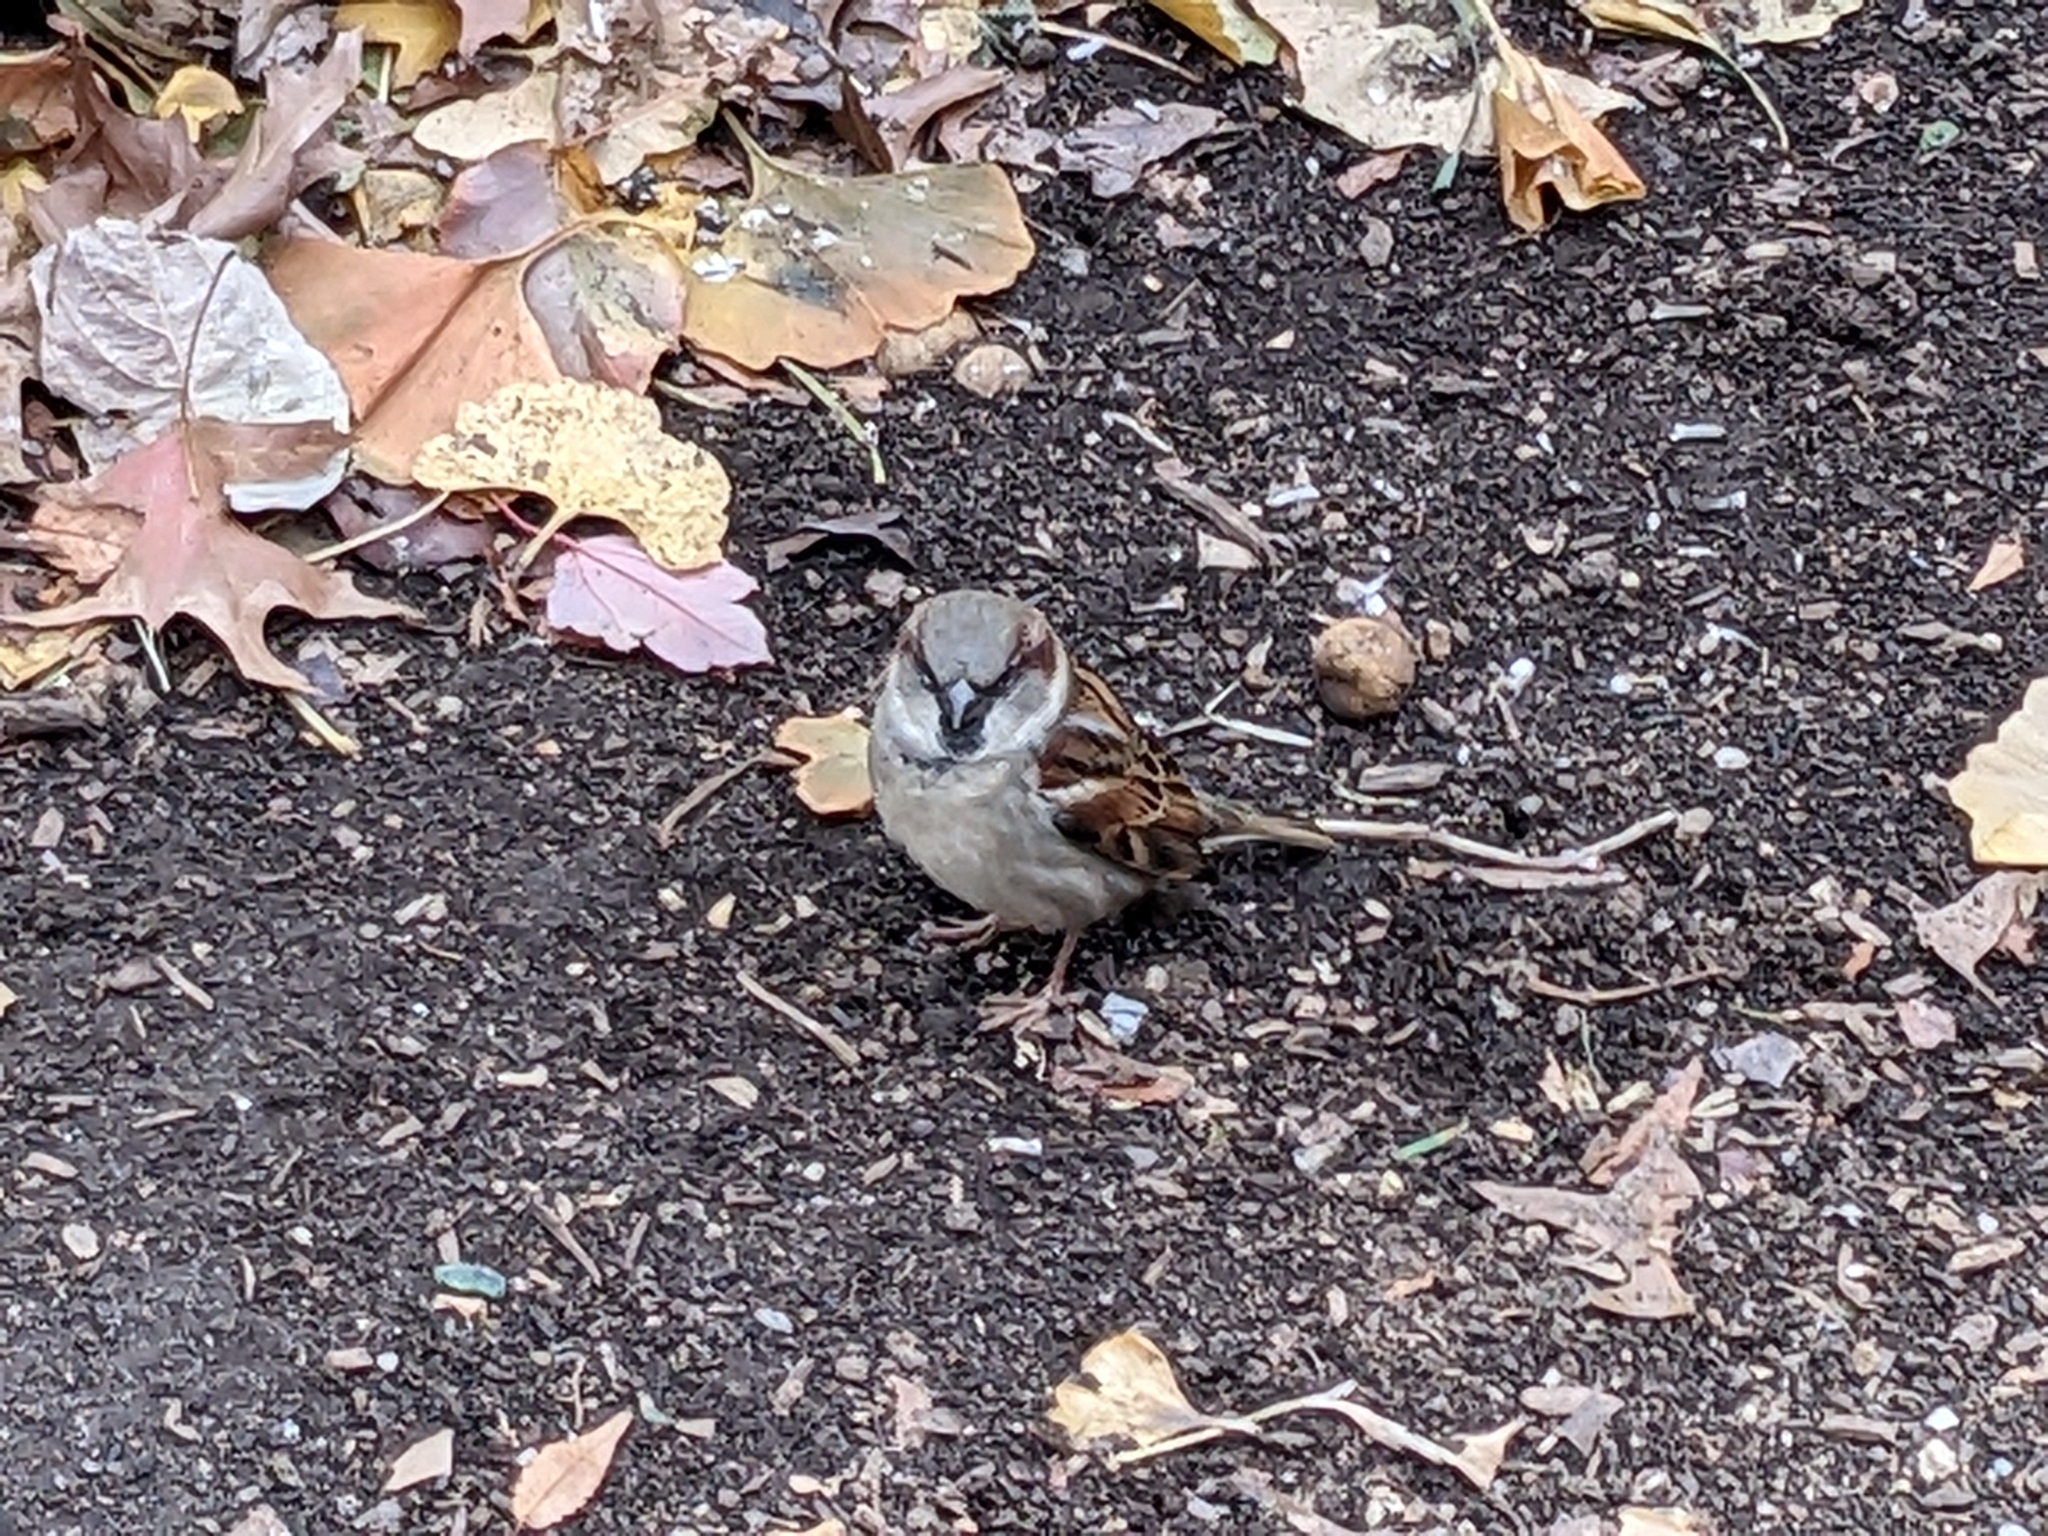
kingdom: Animalia
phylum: Chordata
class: Aves
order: Passeriformes
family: Passeridae
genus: Passer
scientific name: Passer domesticus
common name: House sparrow
